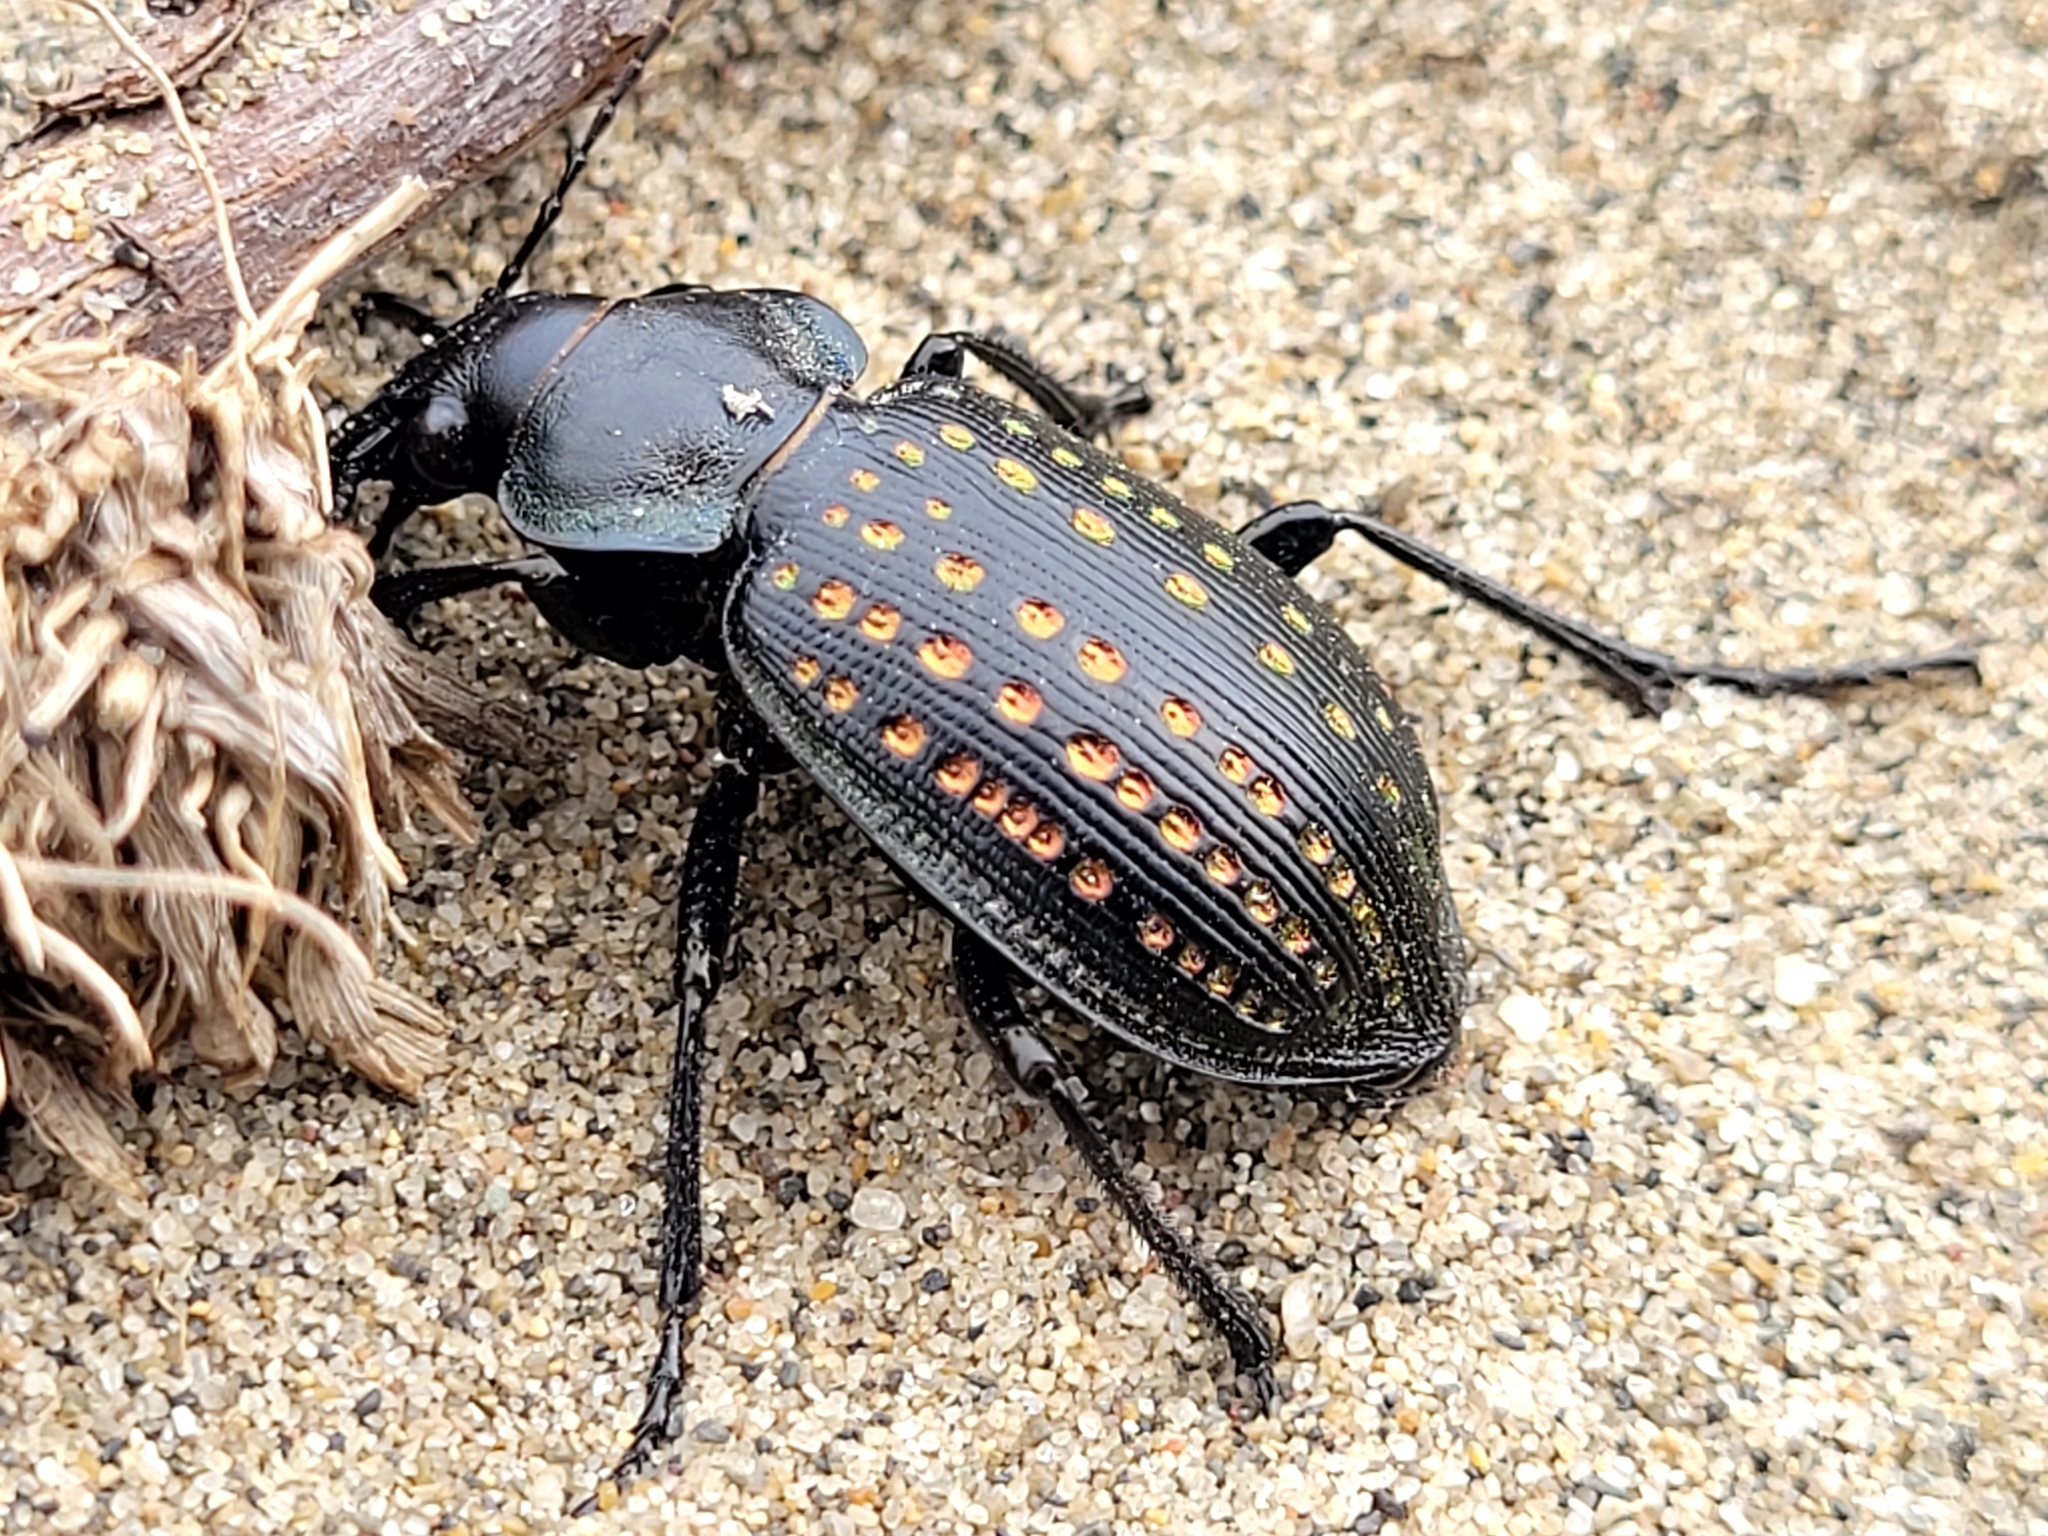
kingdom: Animalia
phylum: Arthropoda
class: Insecta
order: Coleoptera
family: Carabidae
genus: Calosoma
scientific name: Calosoma calidum
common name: Fiery hunter
